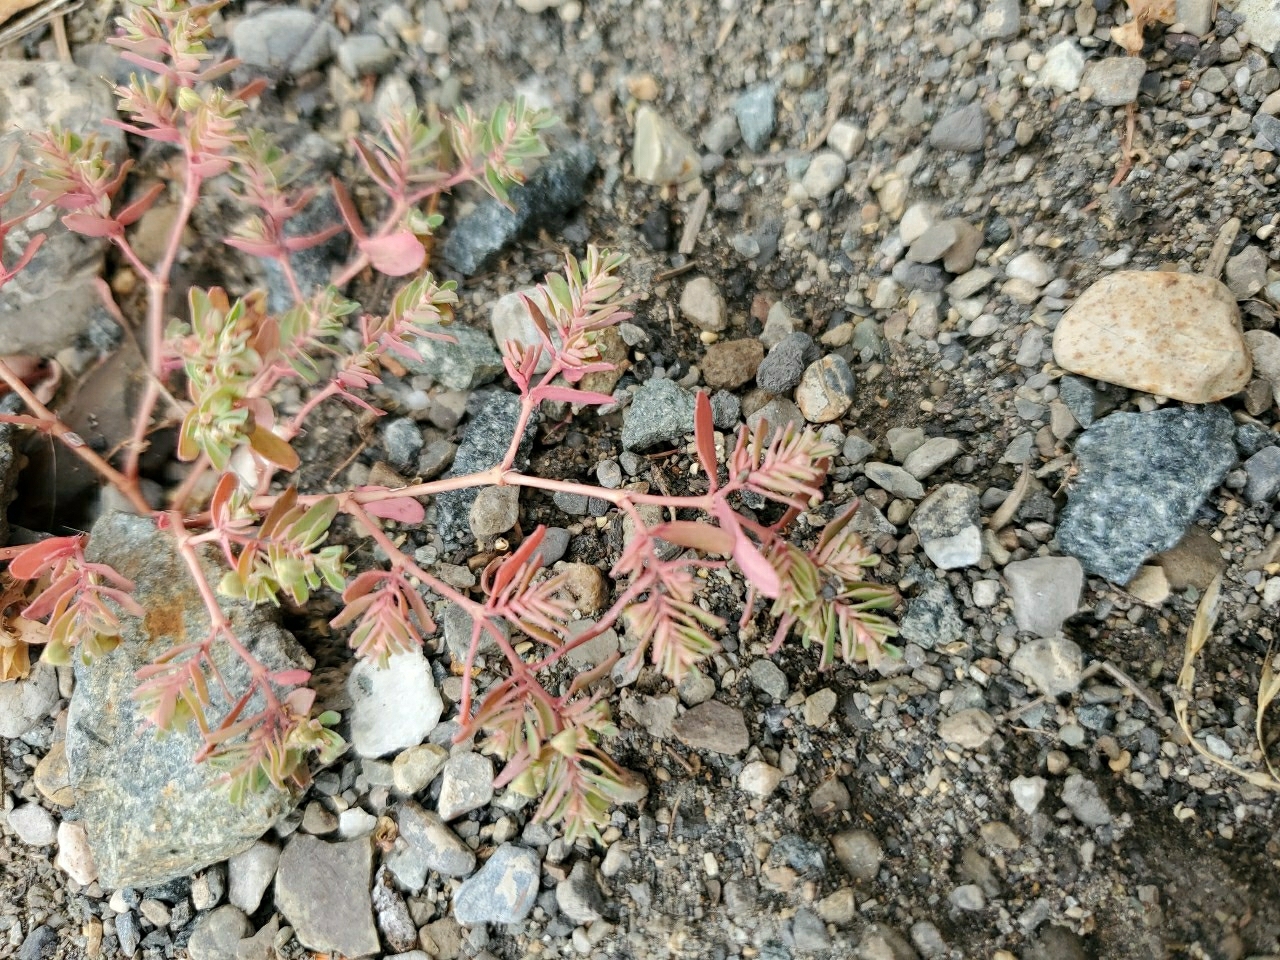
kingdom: Plantae
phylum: Tracheophyta
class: Magnoliopsida
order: Malpighiales
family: Euphorbiaceae
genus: Euphorbia
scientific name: Euphorbia glyptosperma
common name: Corrugate-seeded spurge
